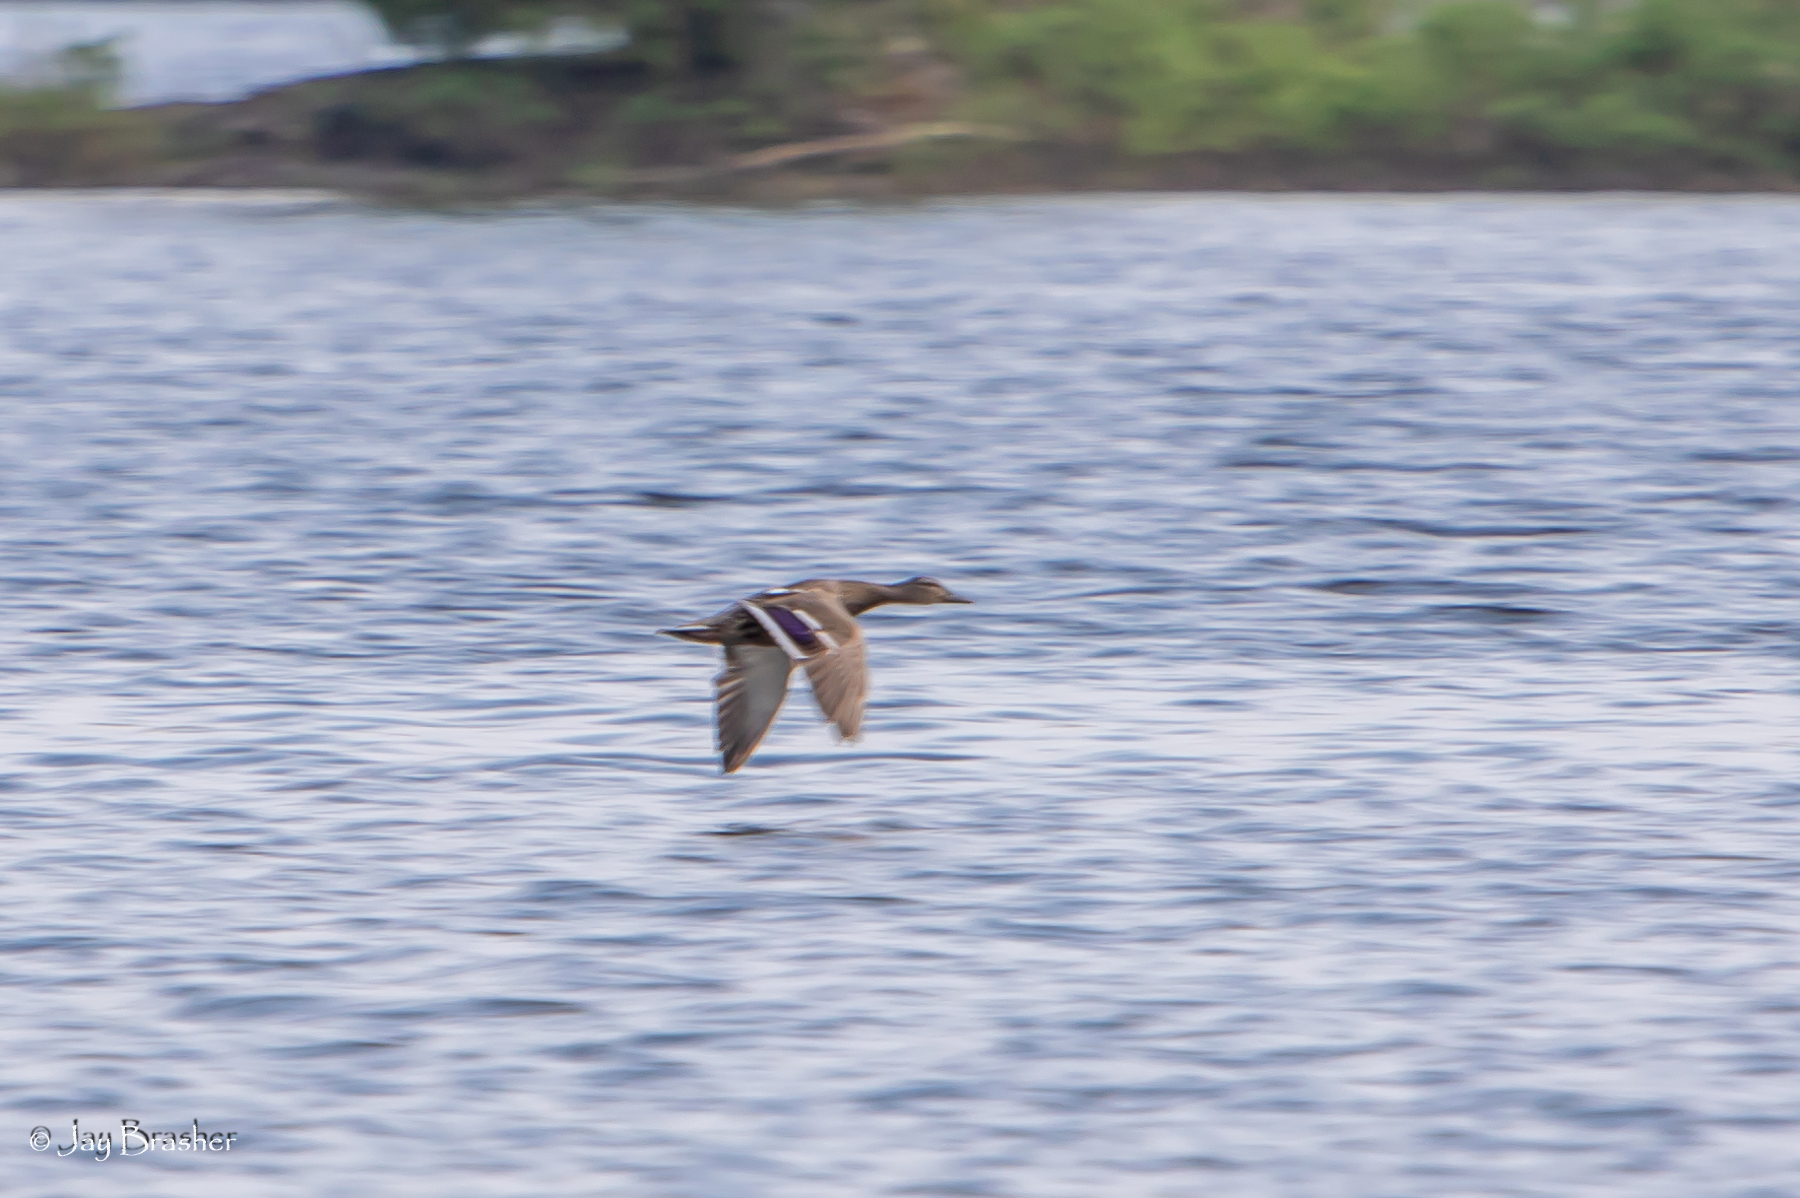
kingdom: Animalia
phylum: Chordata
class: Aves
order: Anseriformes
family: Anatidae
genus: Anas
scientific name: Anas platyrhynchos
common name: Mallard
